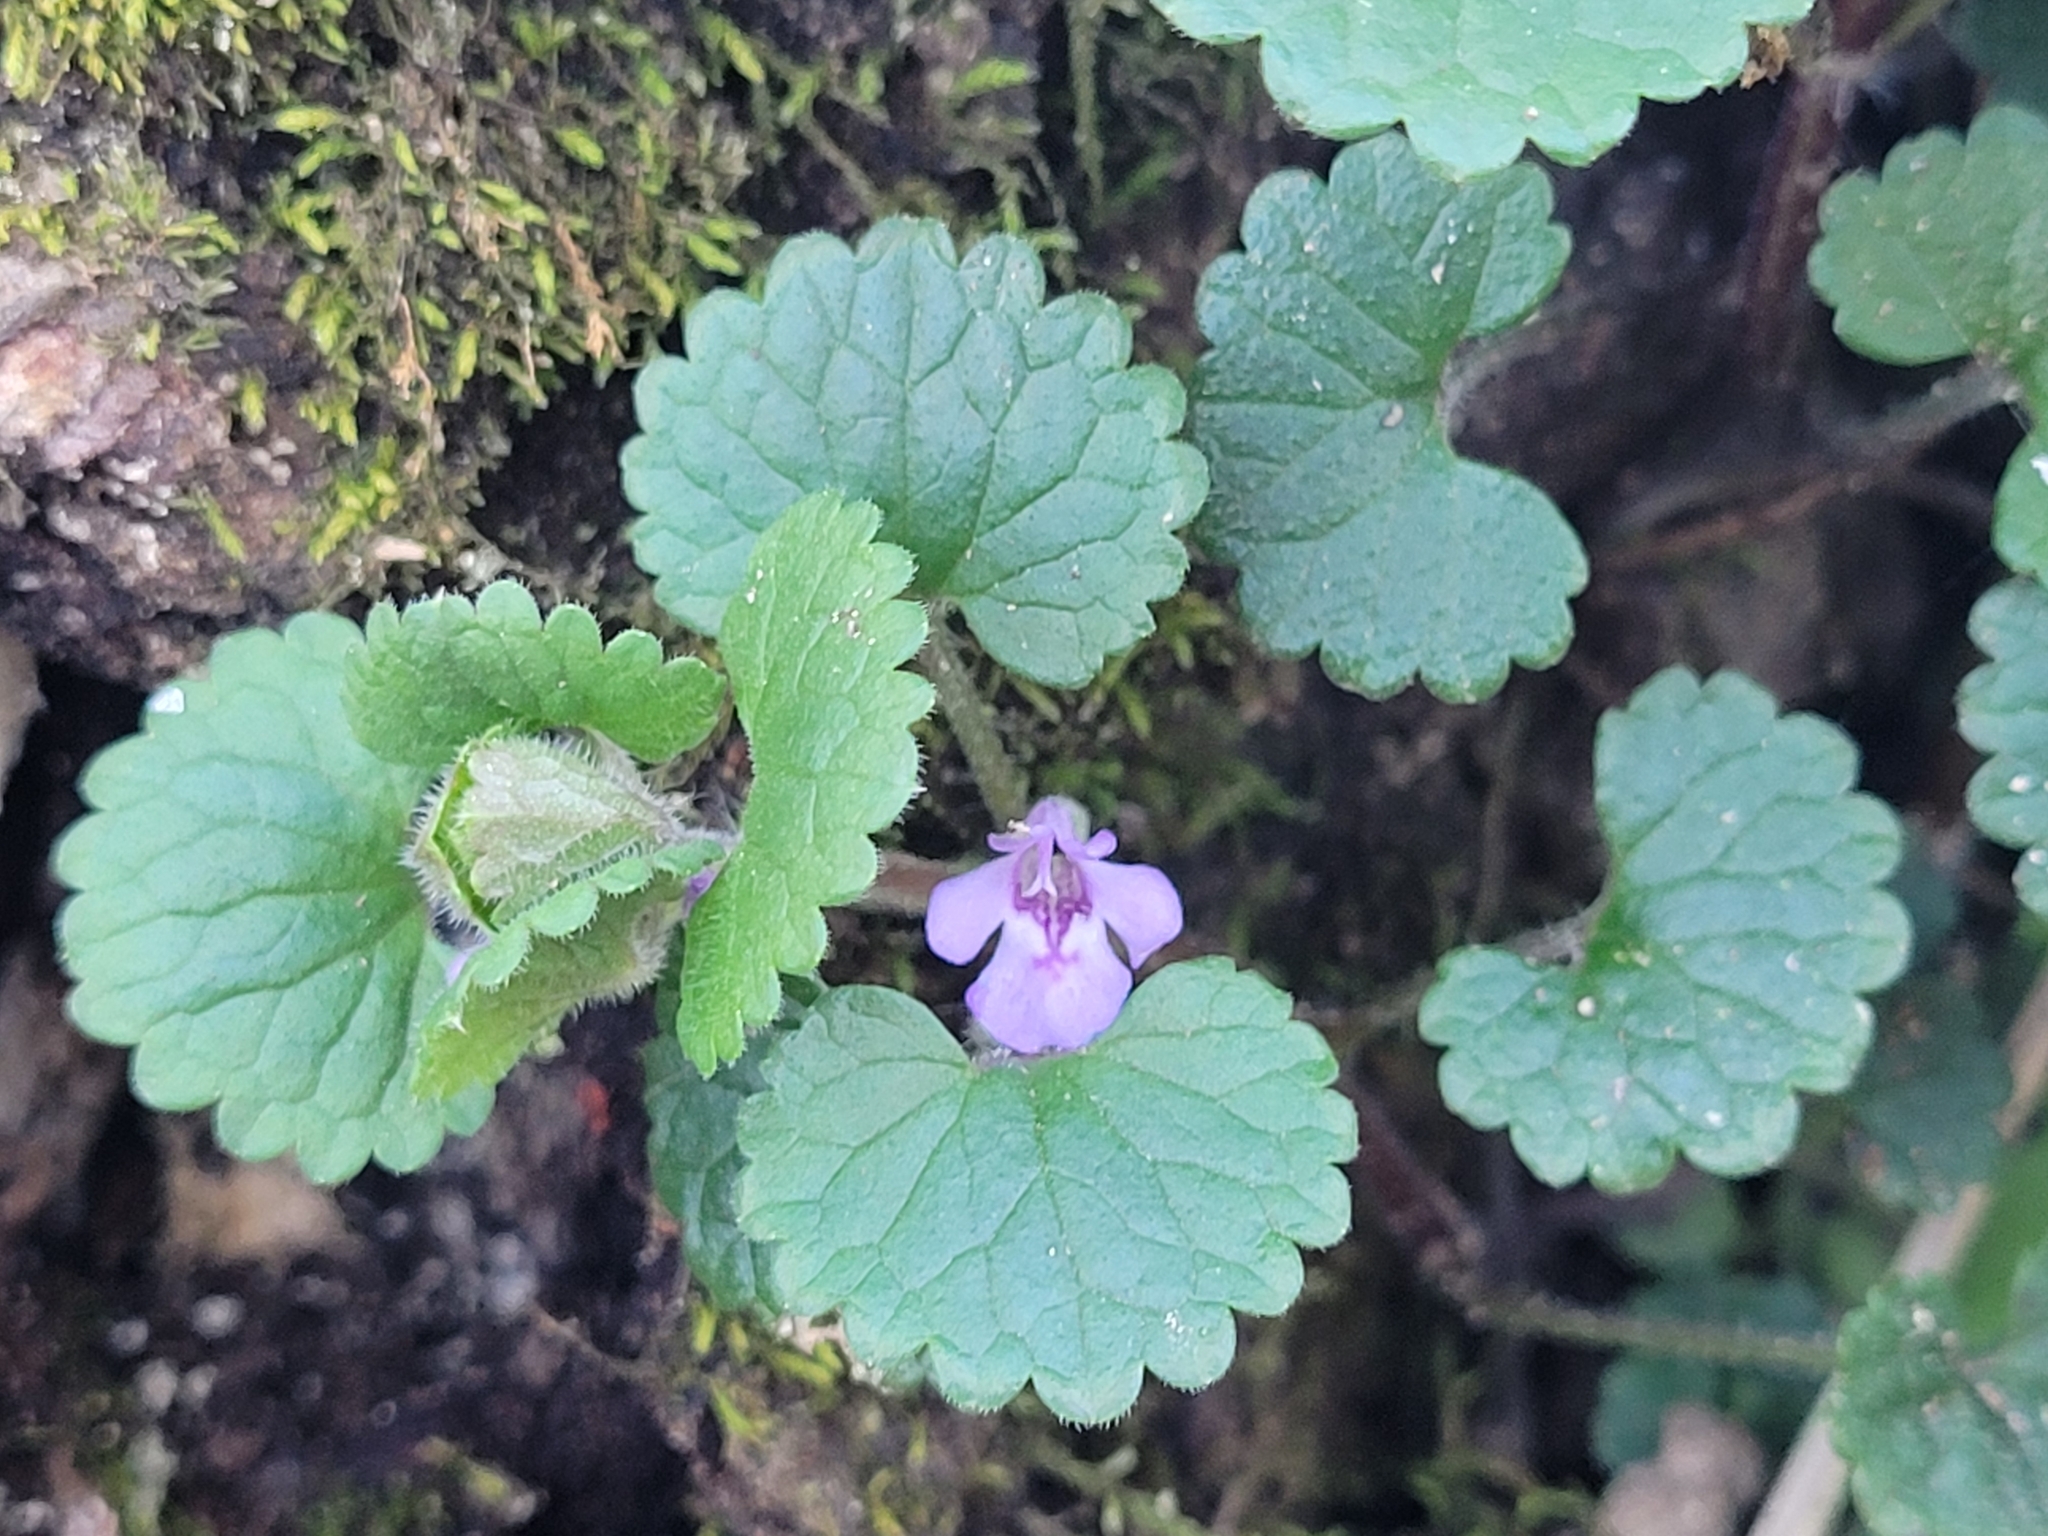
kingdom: Plantae
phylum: Tracheophyta
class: Magnoliopsida
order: Lamiales
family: Lamiaceae
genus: Glechoma
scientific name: Glechoma hederacea
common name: Ground ivy
